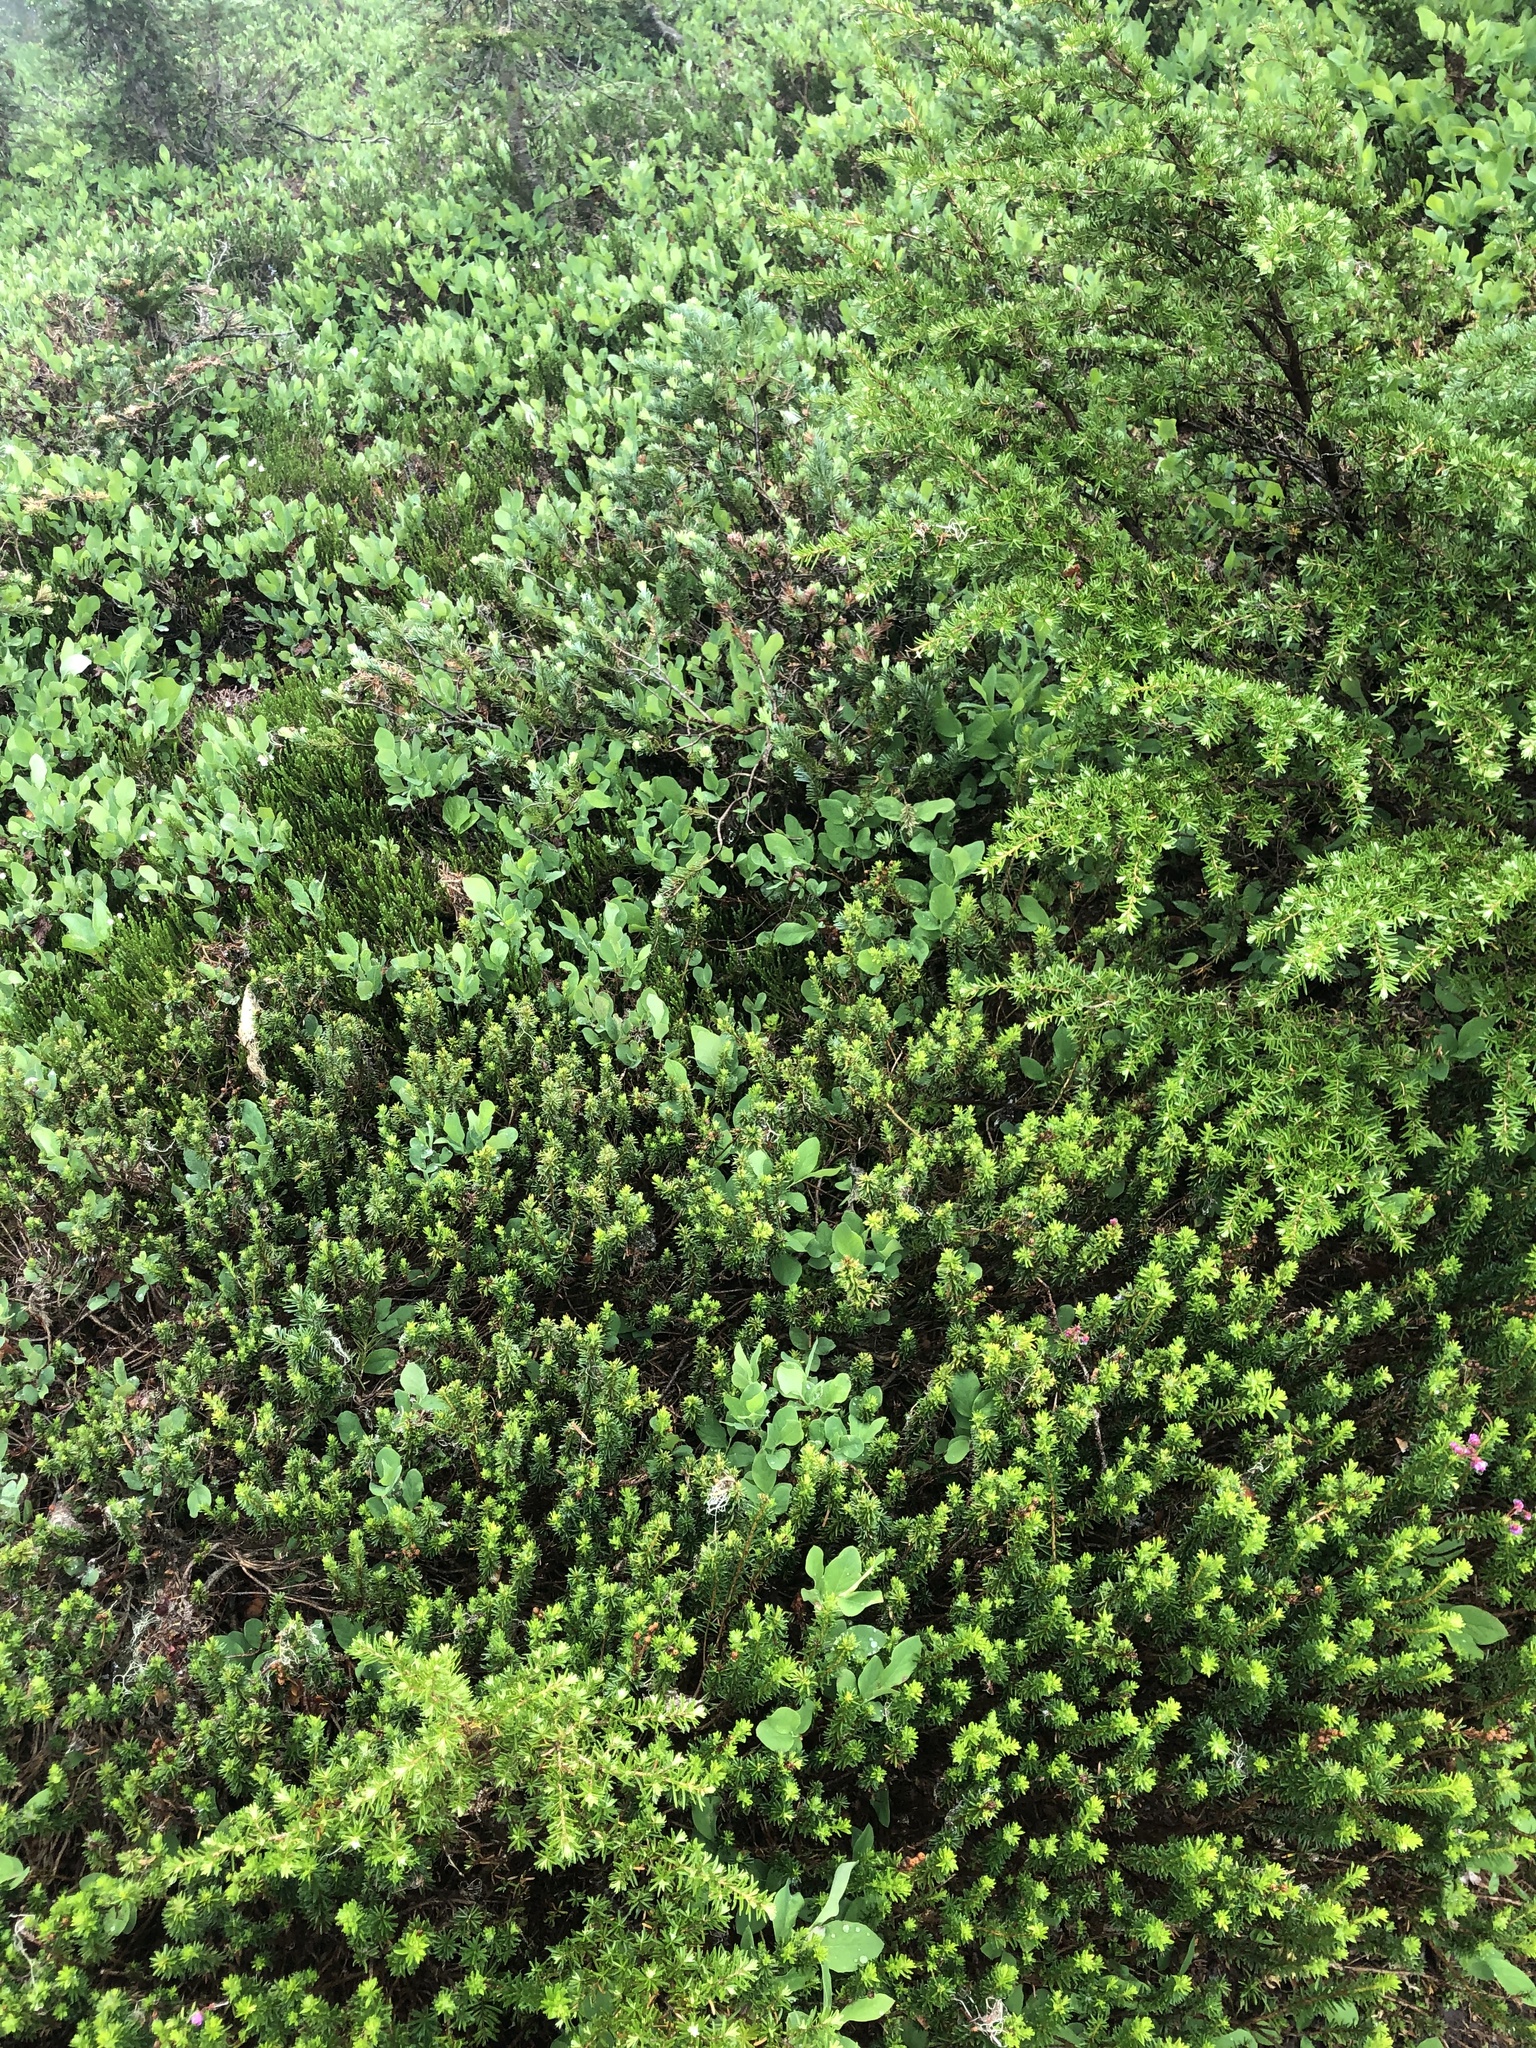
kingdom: Plantae
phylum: Tracheophyta
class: Magnoliopsida
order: Ericales
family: Ericaceae
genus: Phyllodoce
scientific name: Phyllodoce empetriformis
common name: Pink mountain heather
